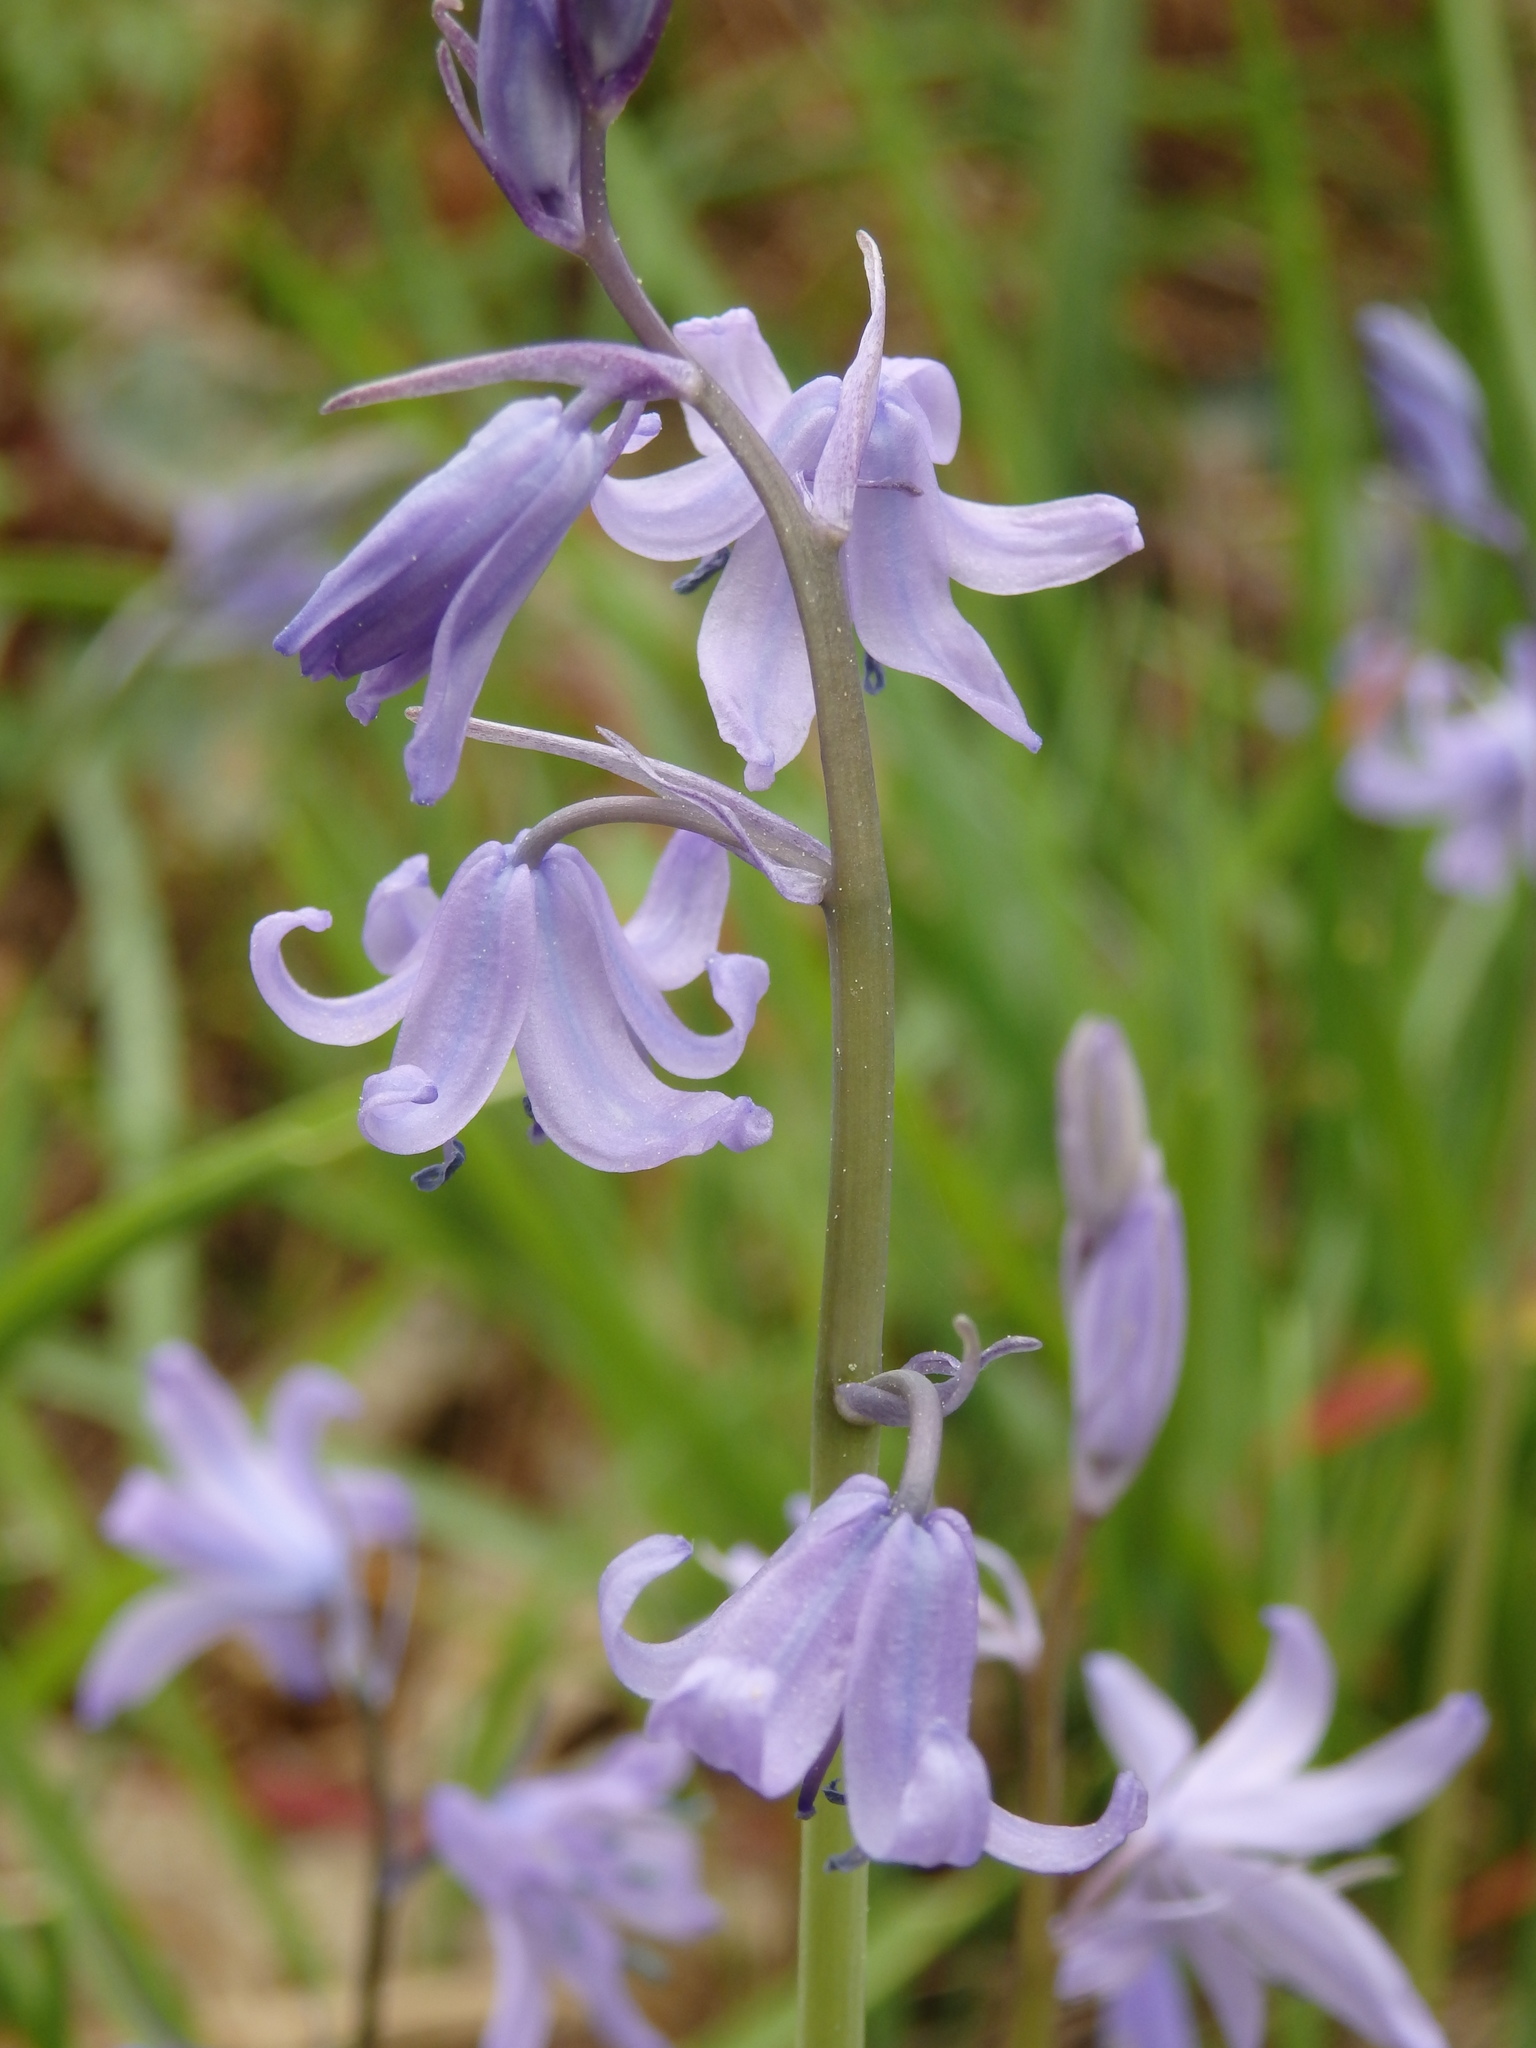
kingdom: Plantae
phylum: Tracheophyta
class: Liliopsida
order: Asparagales
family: Asparagaceae
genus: Hyacinthoides
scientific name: Hyacinthoides hispanica
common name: Spanish bluebell
